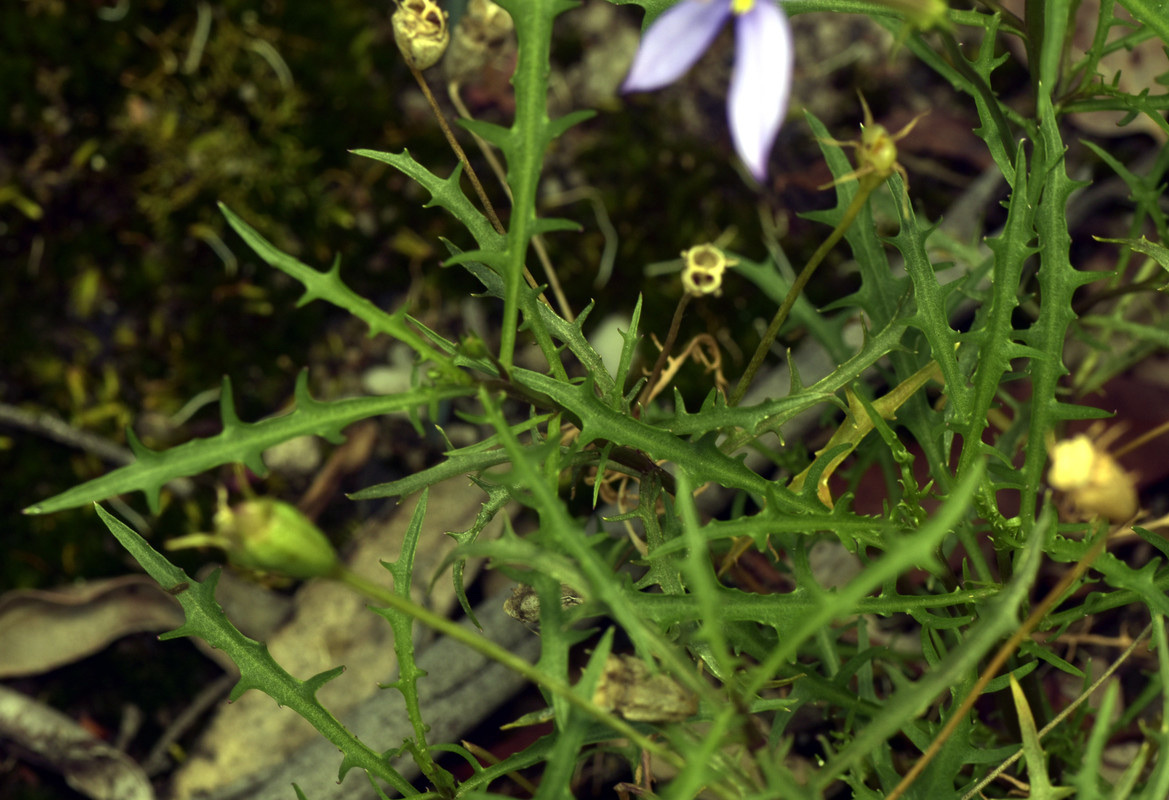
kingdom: Plantae
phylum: Tracheophyta
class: Magnoliopsida
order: Asterales
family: Campanulaceae
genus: Lithotoma
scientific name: Lithotoma axillaris
